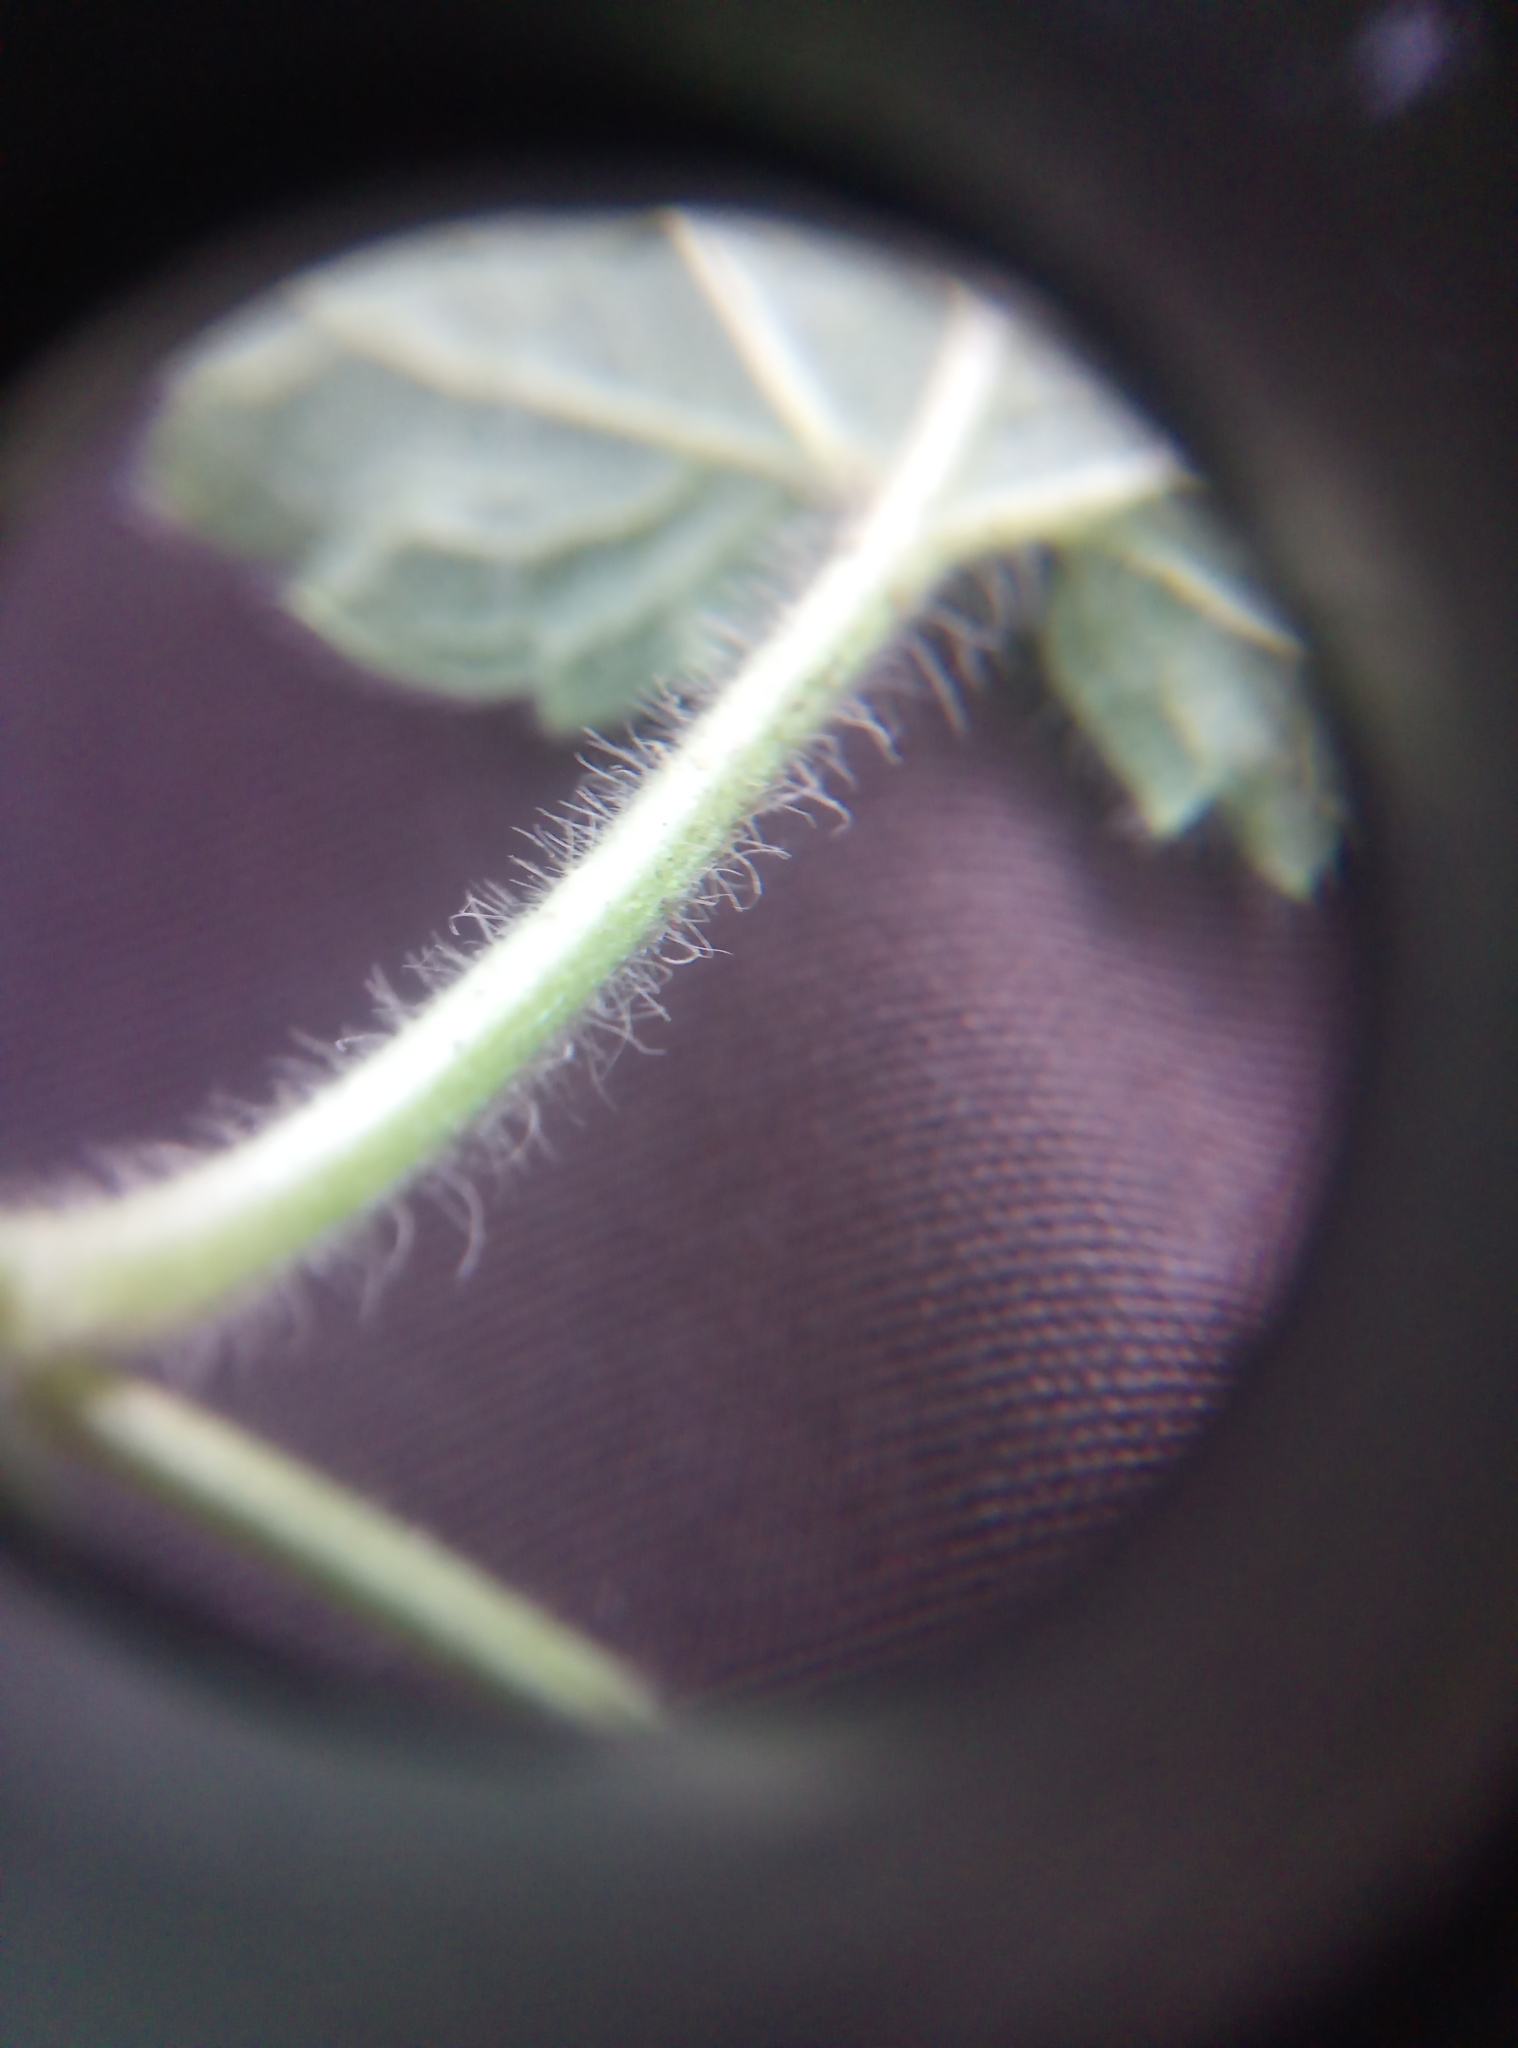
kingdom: Plantae
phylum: Tracheophyta
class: Magnoliopsida
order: Lamiales
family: Lamiaceae
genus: Stachys
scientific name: Stachys sylvatica
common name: Hedge woundwort
